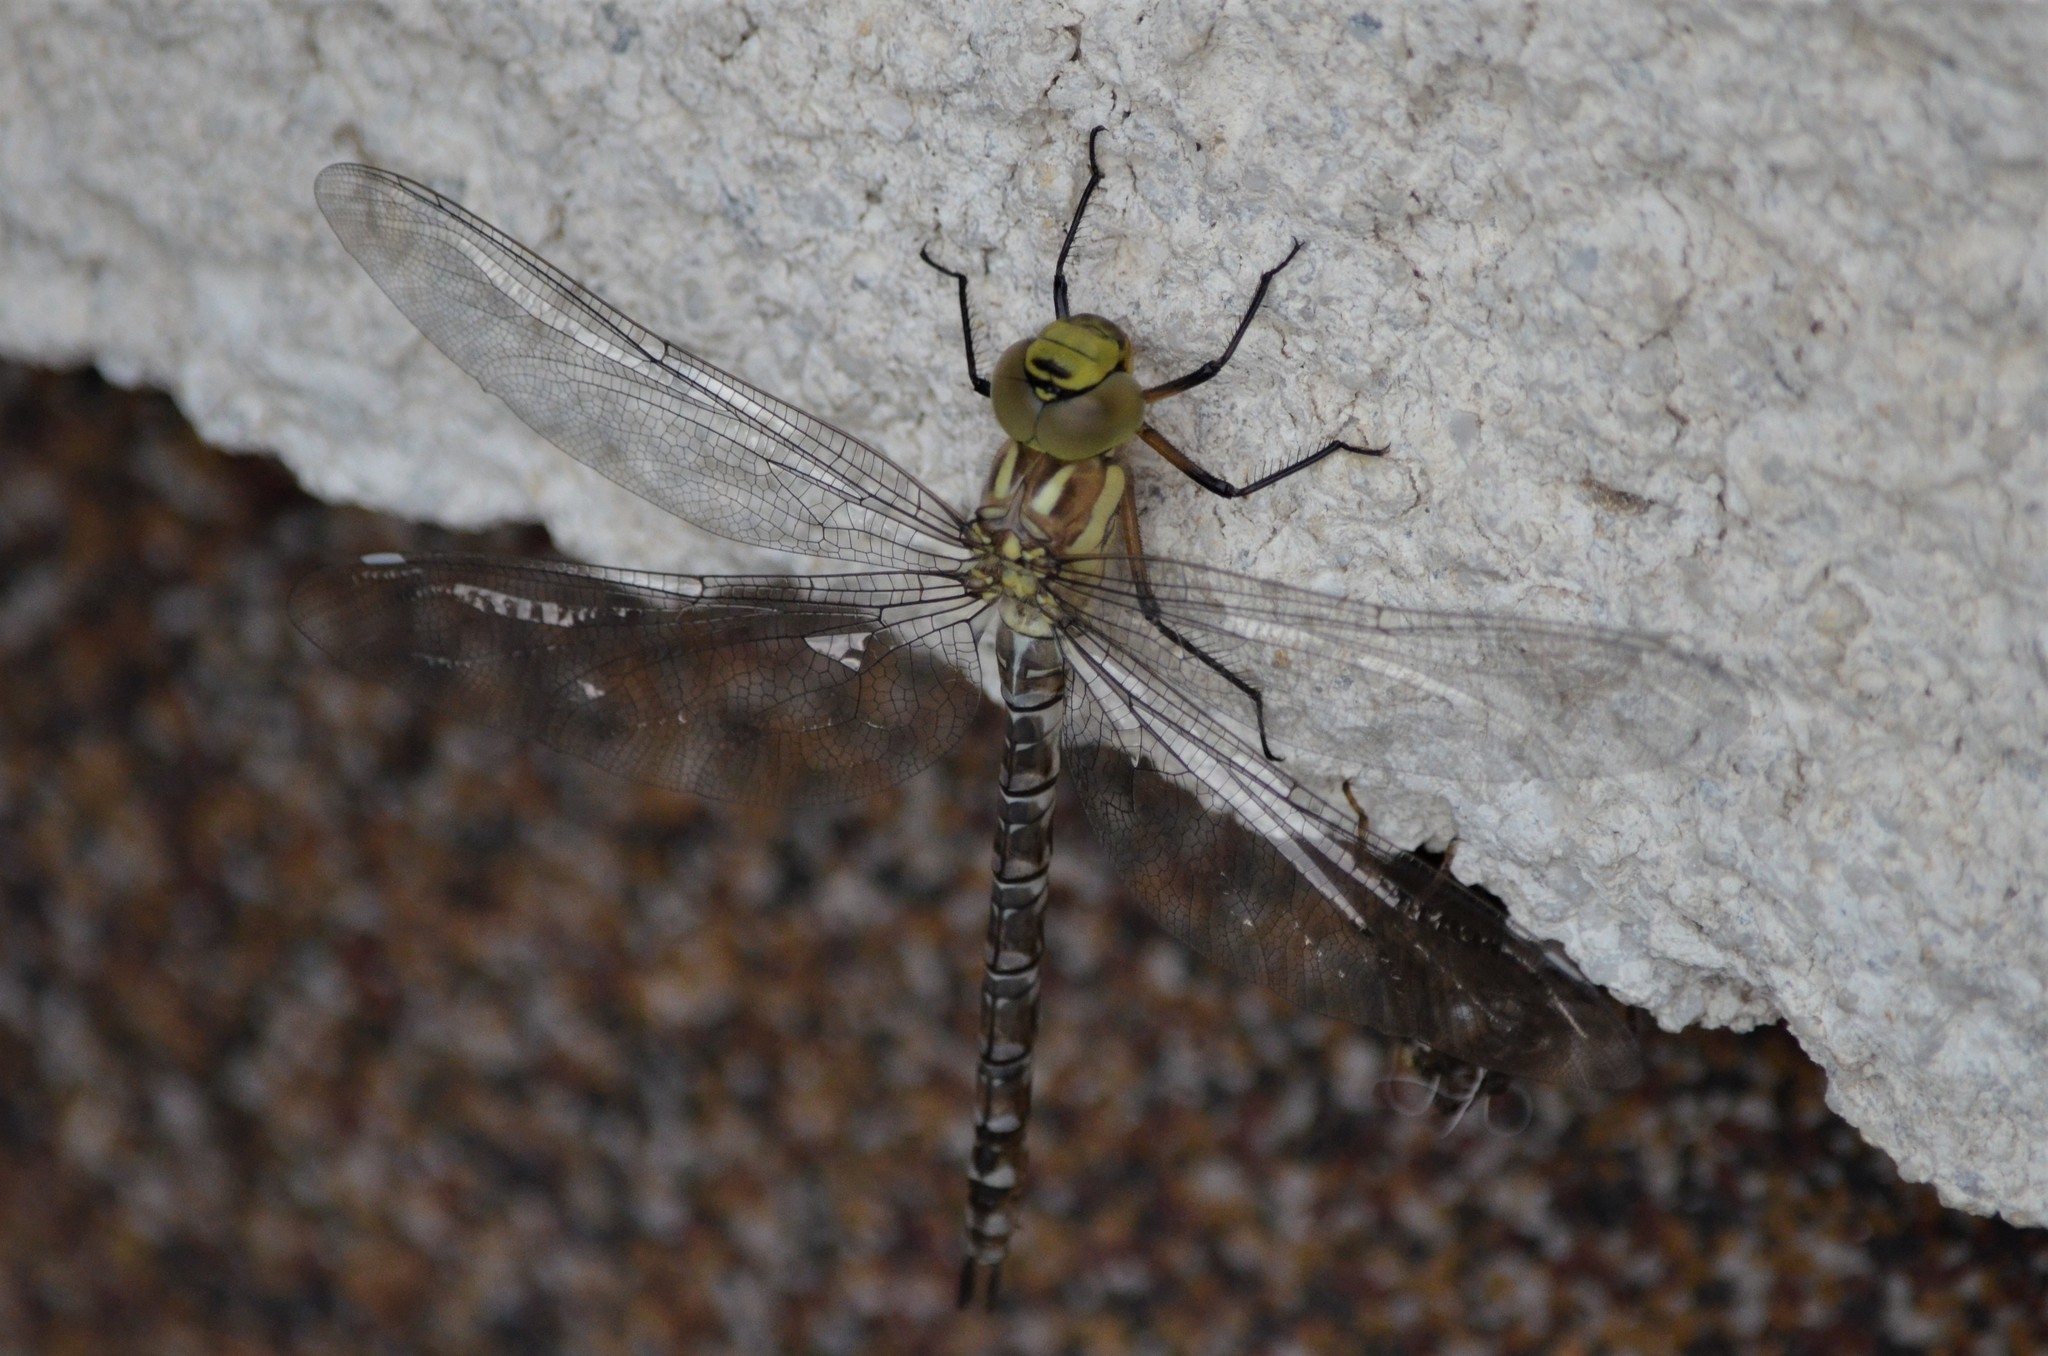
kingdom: Animalia
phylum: Arthropoda
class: Insecta
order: Odonata
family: Aeshnidae
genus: Aeshna
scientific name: Aeshna cyanea
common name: Southern hawker
